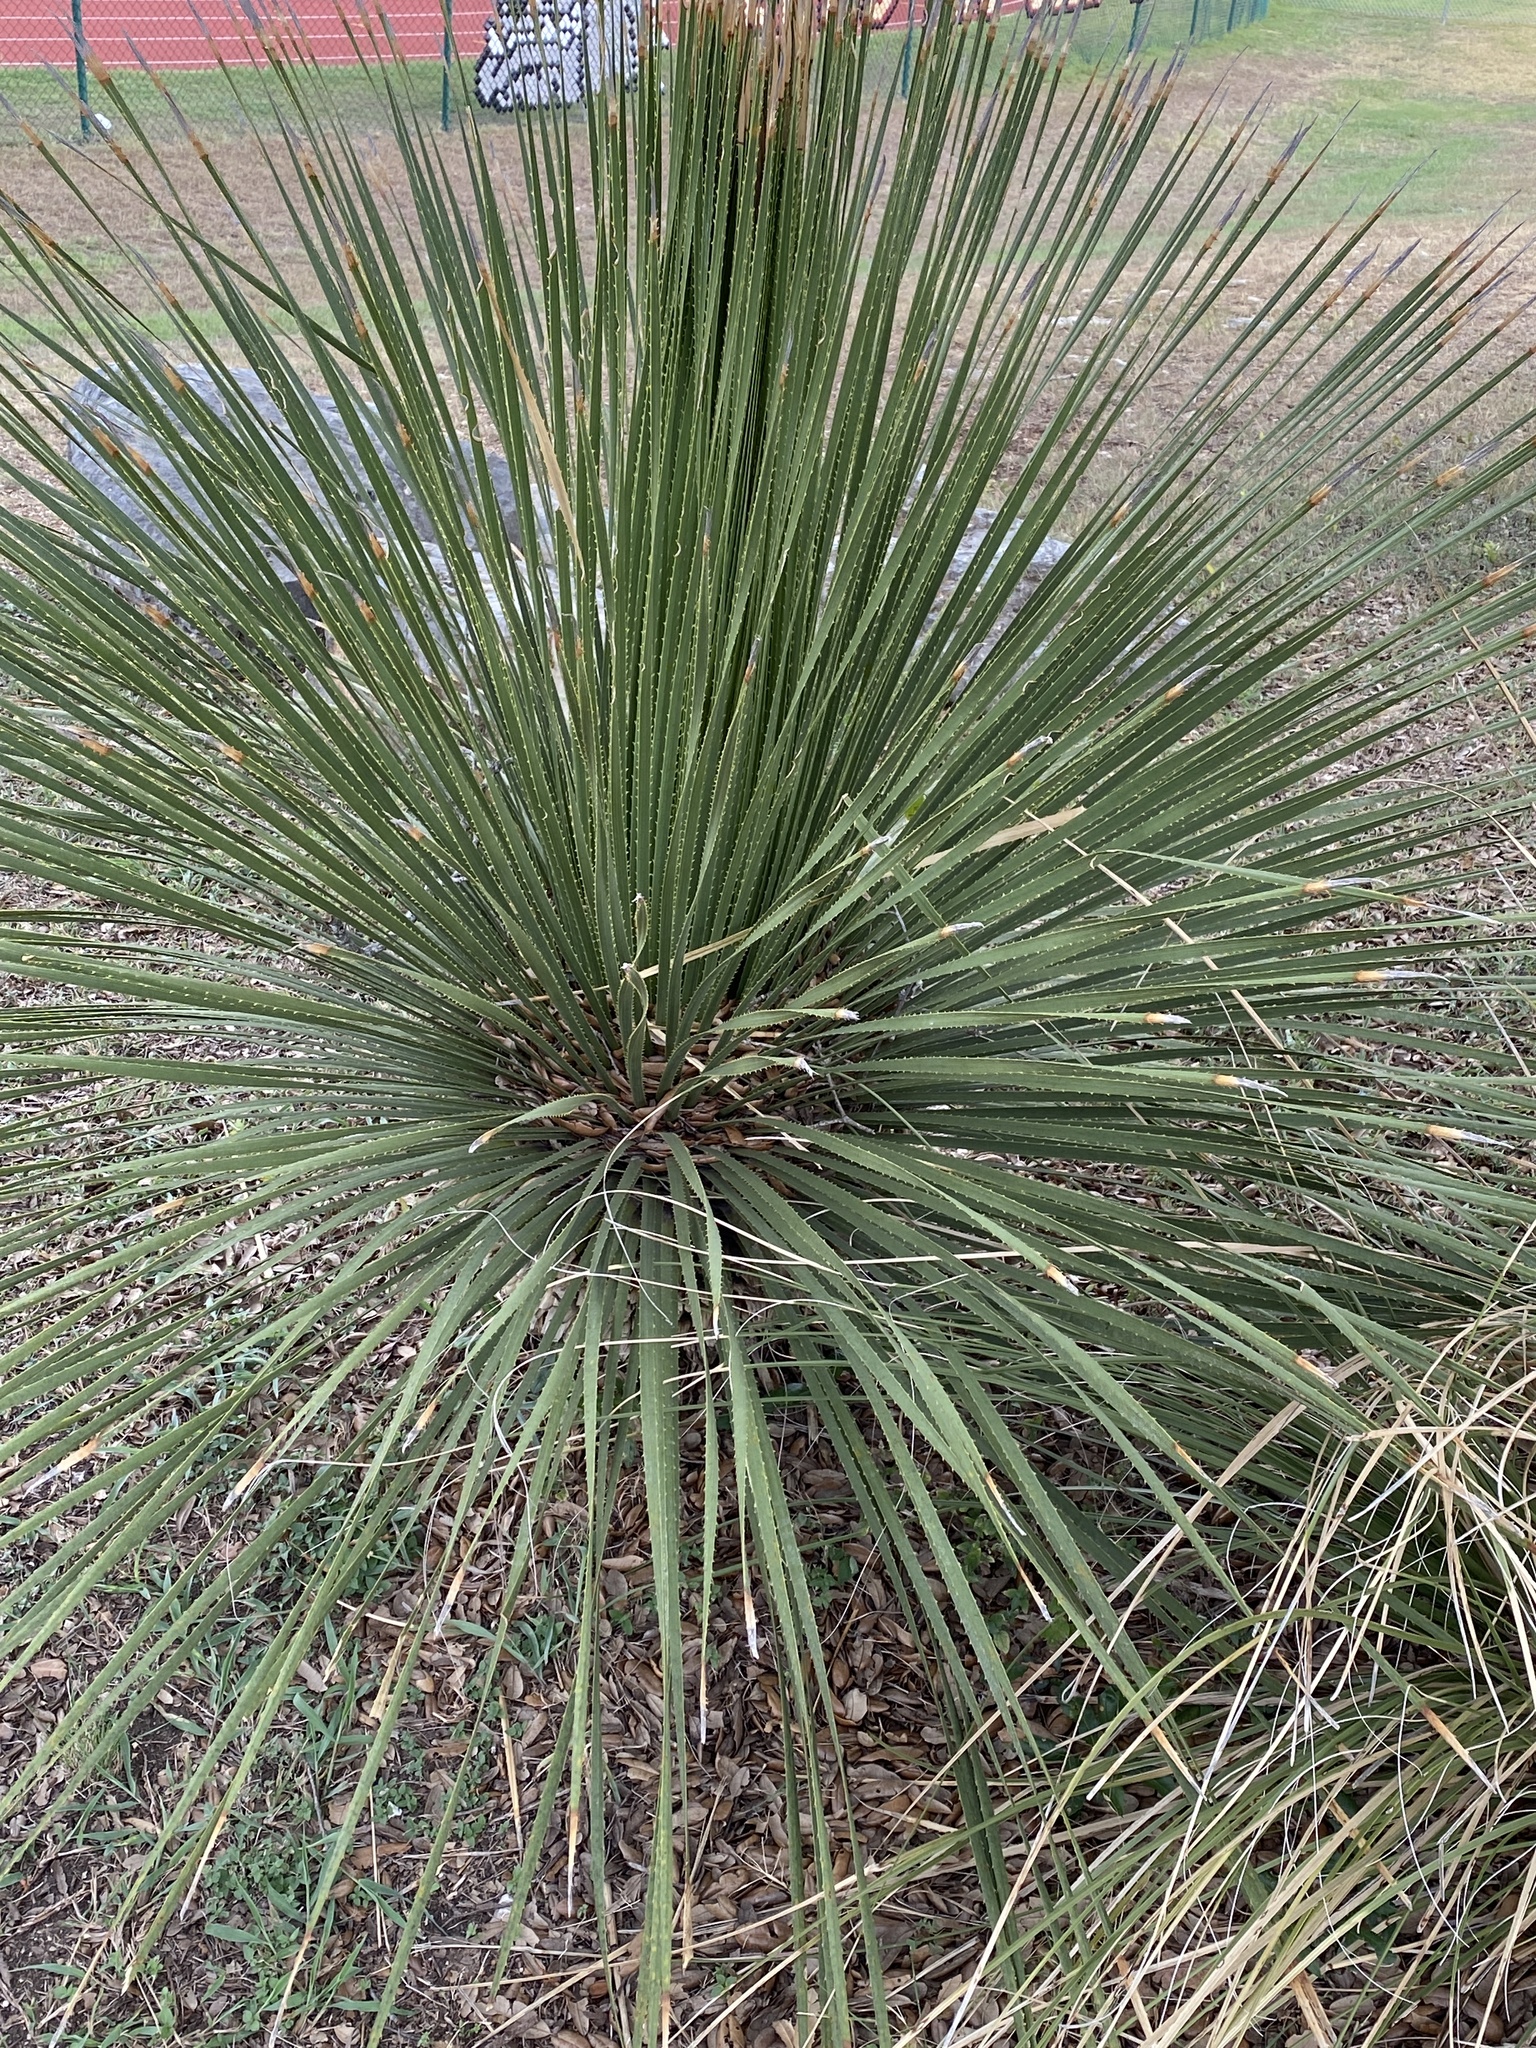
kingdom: Plantae
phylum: Tracheophyta
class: Liliopsida
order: Asparagales
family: Asparagaceae
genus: Dasylirion
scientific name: Dasylirion texanum
